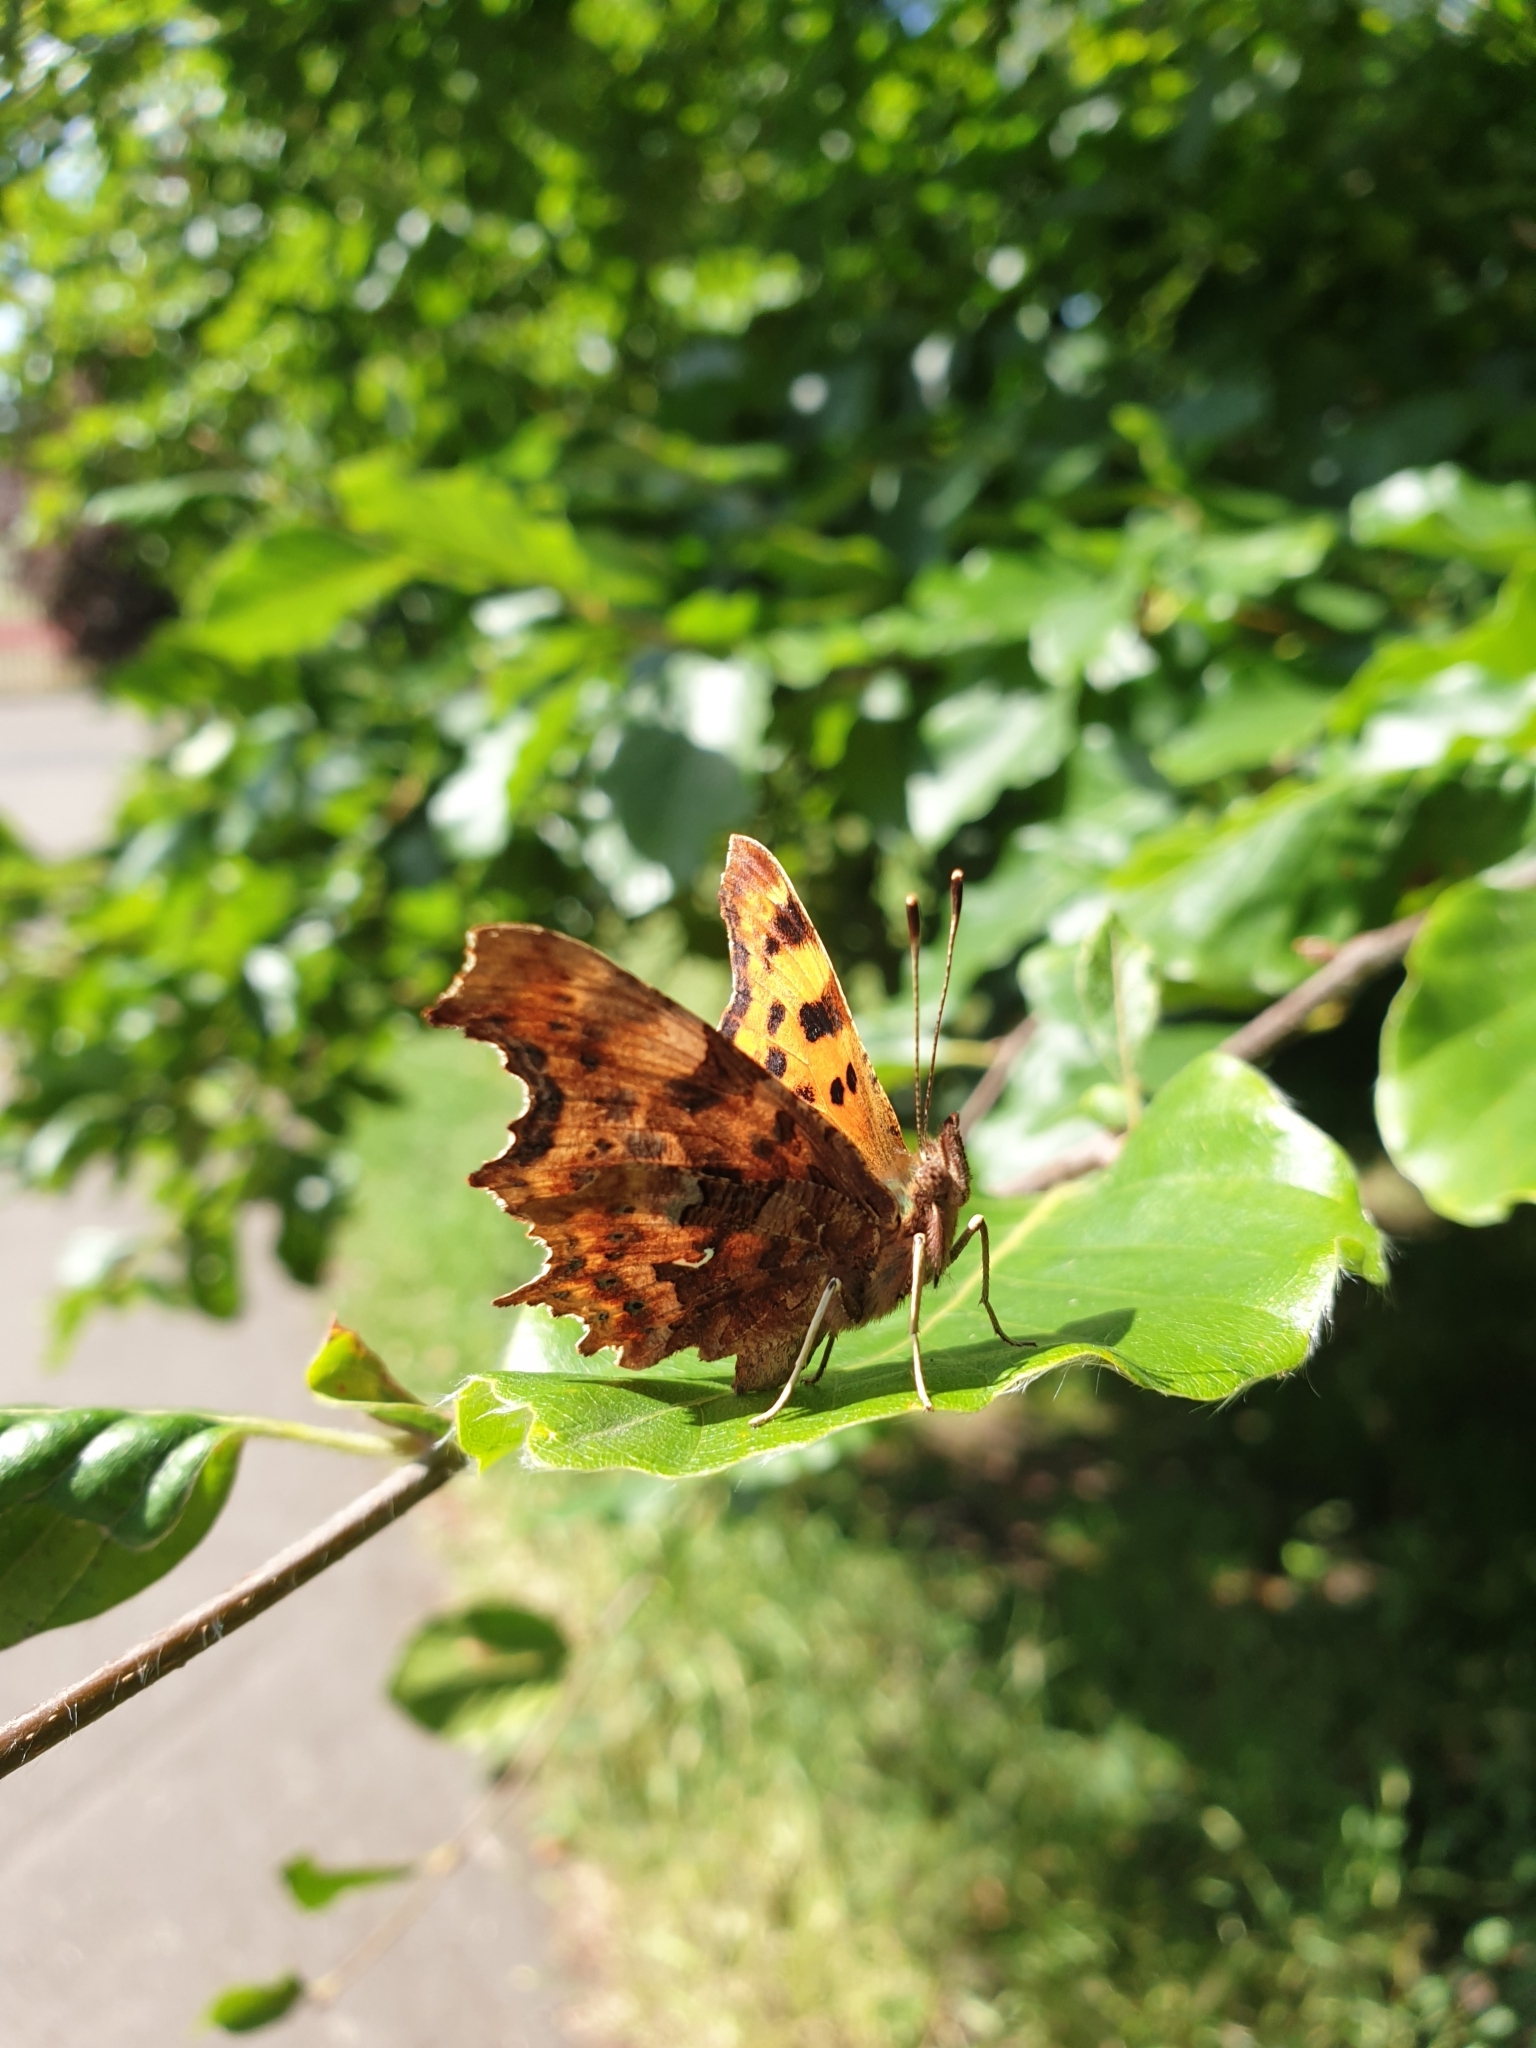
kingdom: Animalia
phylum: Arthropoda
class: Insecta
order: Lepidoptera
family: Nymphalidae
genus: Polygonia
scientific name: Polygonia c-album
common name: Comma
